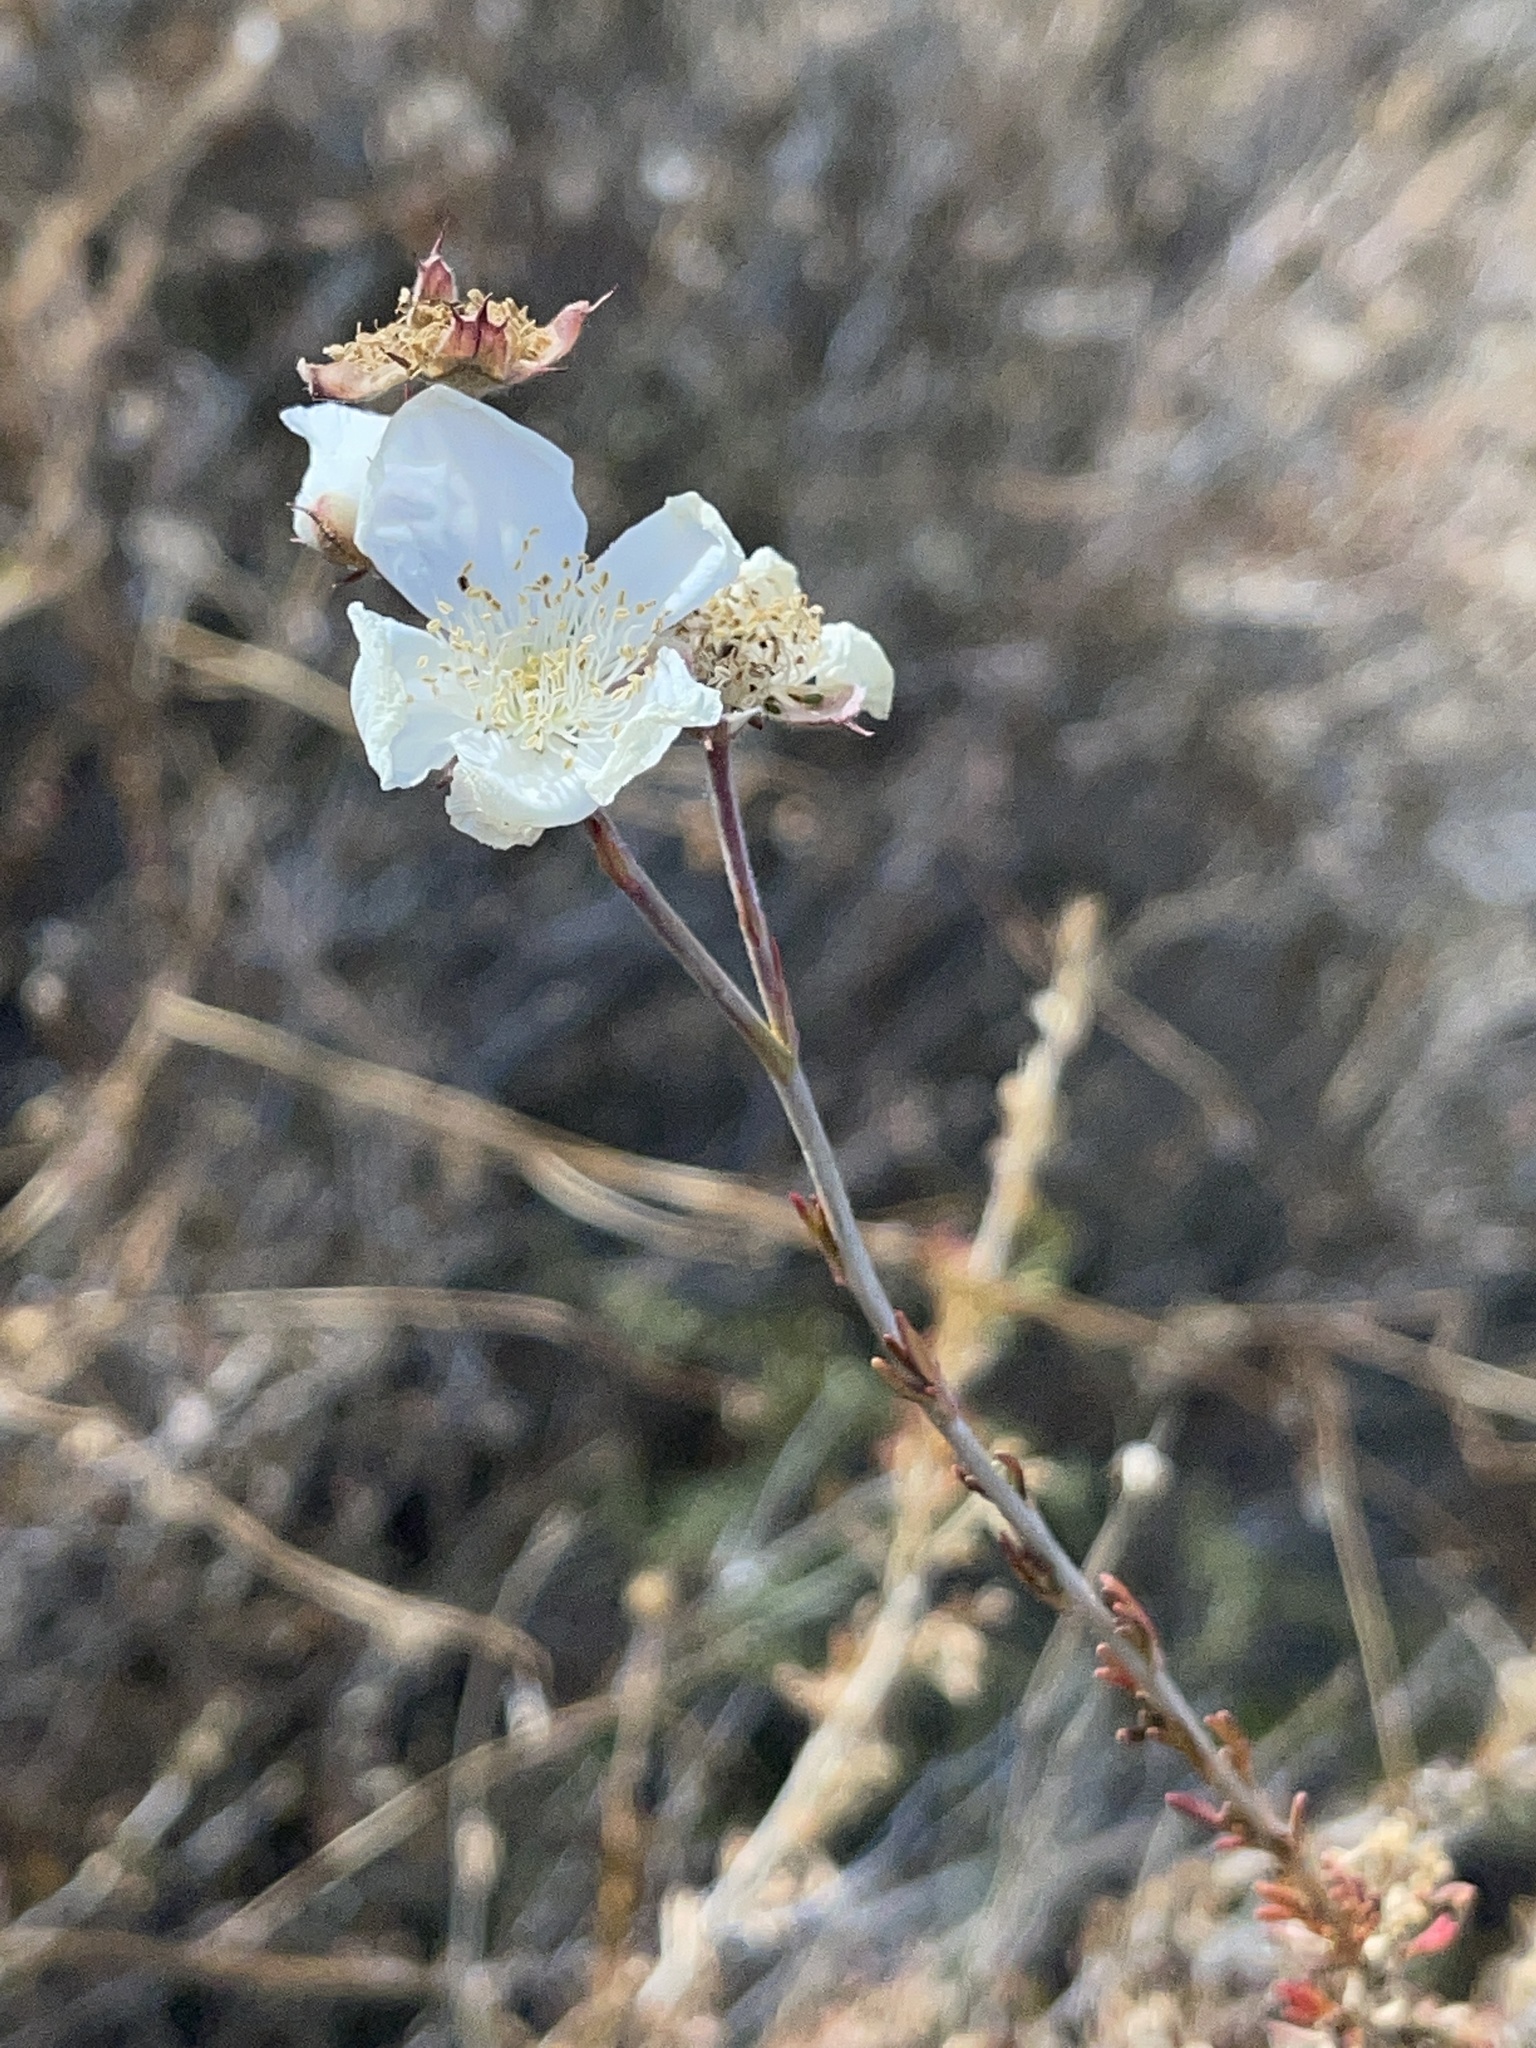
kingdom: Plantae
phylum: Tracheophyta
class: Magnoliopsida
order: Rosales
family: Rosaceae
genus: Fallugia
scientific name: Fallugia paradoxa
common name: Apache-plume
